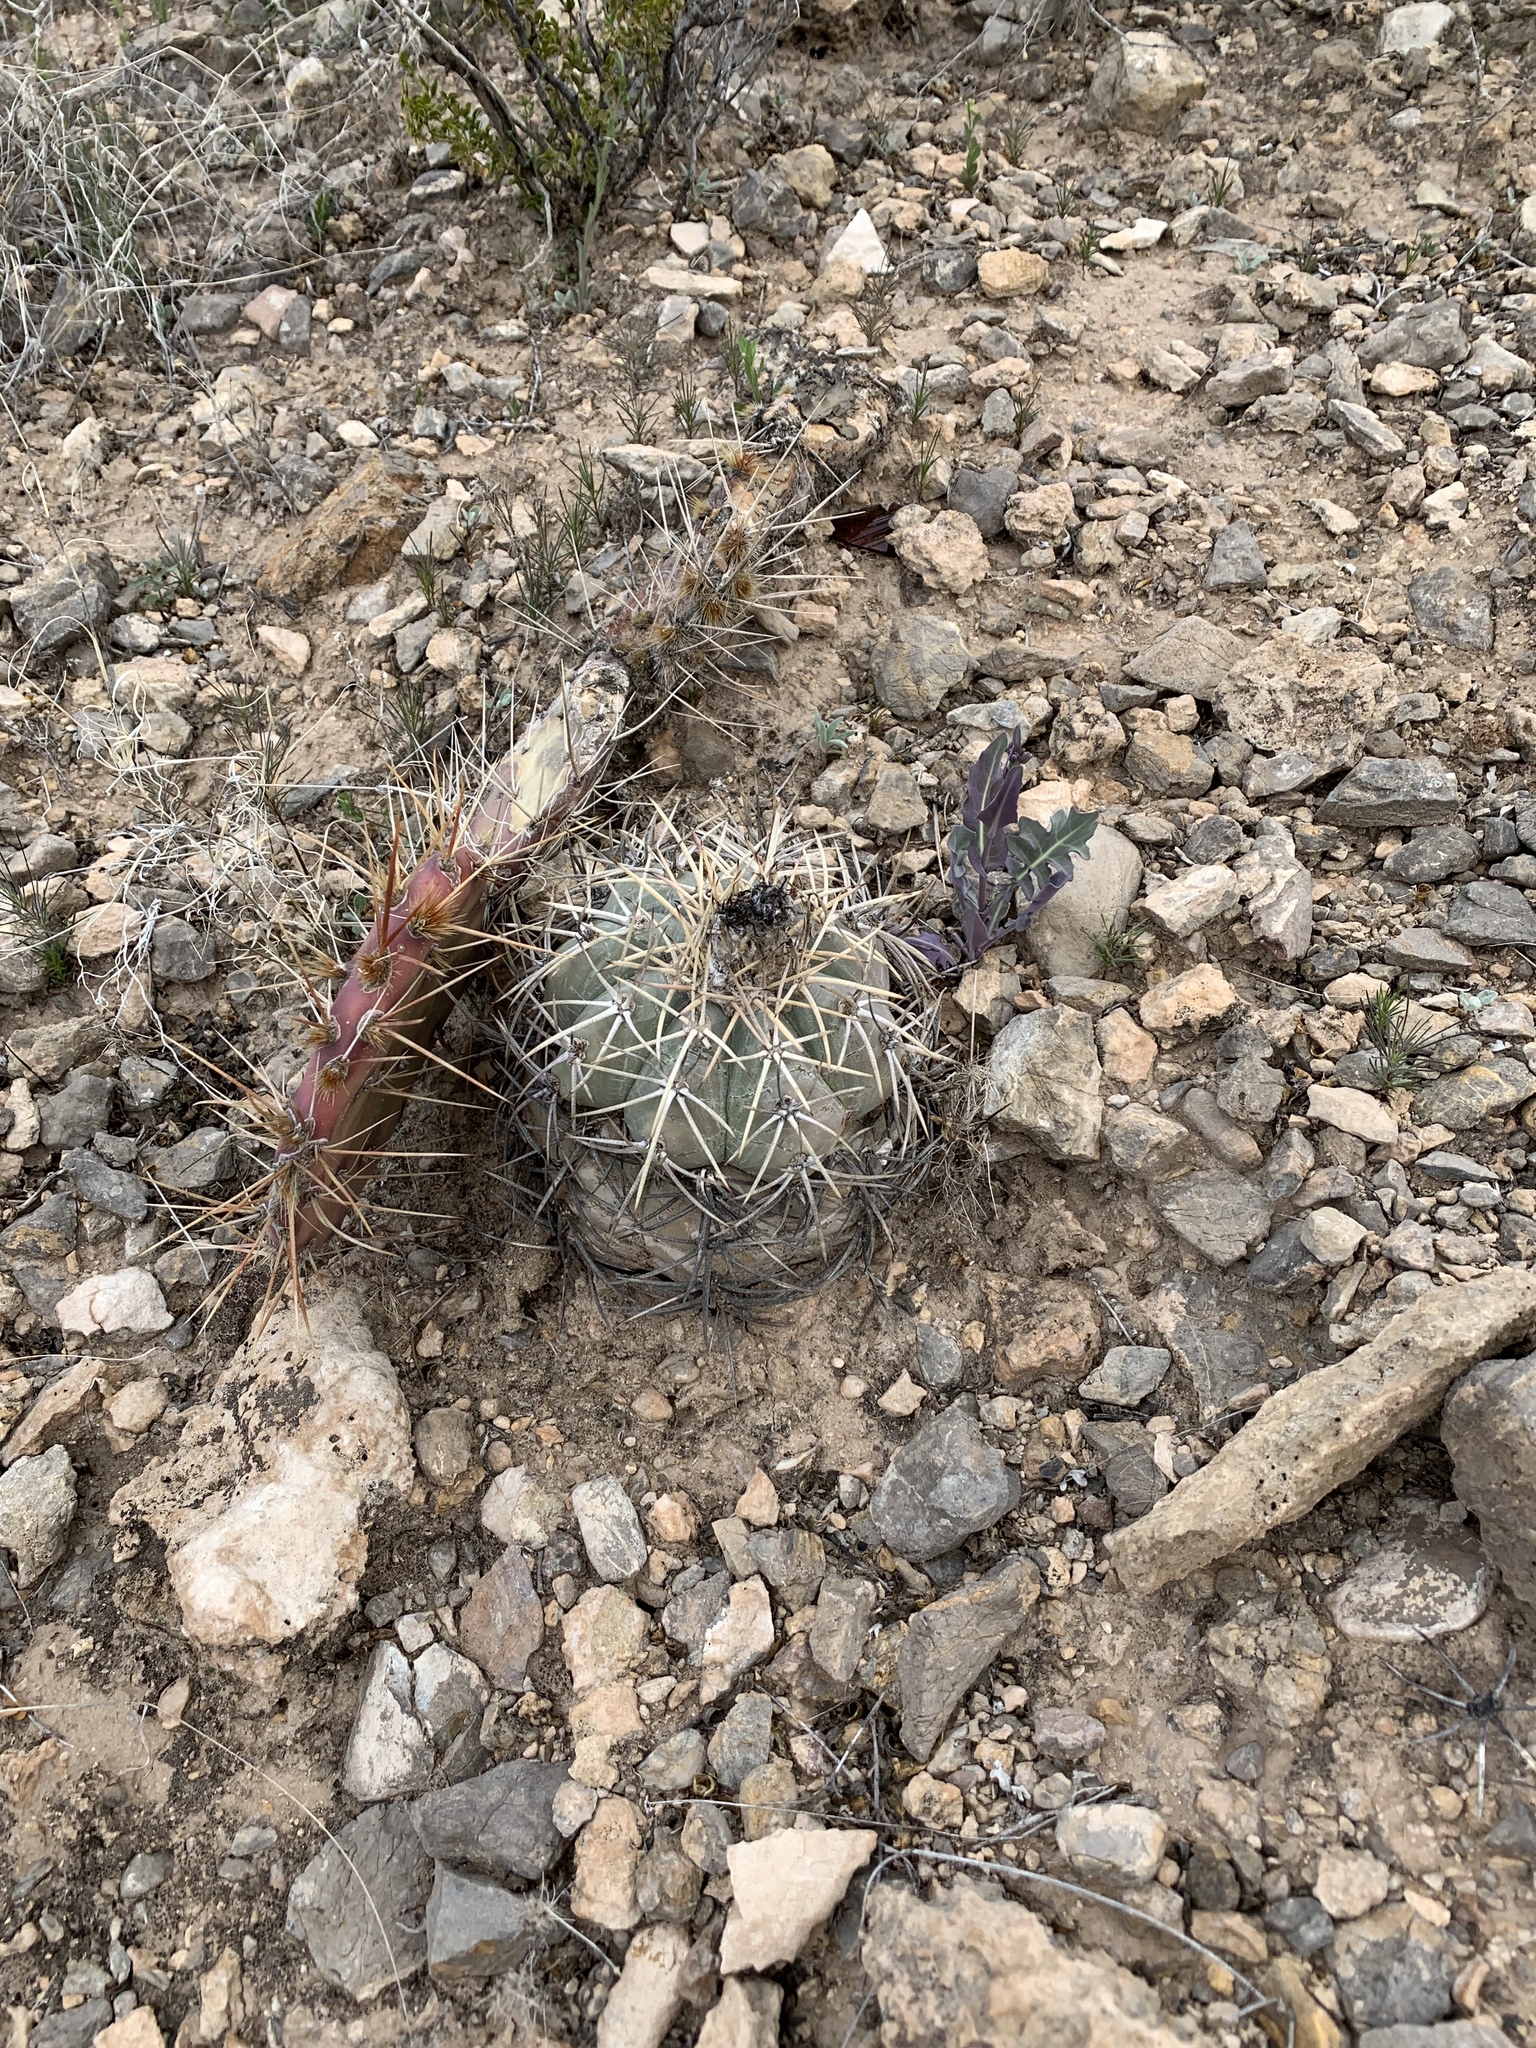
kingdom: Plantae
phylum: Tracheophyta
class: Magnoliopsida
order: Caryophyllales
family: Cactaceae
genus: Echinocactus
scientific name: Echinocactus horizonthalonius
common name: Devilshead
